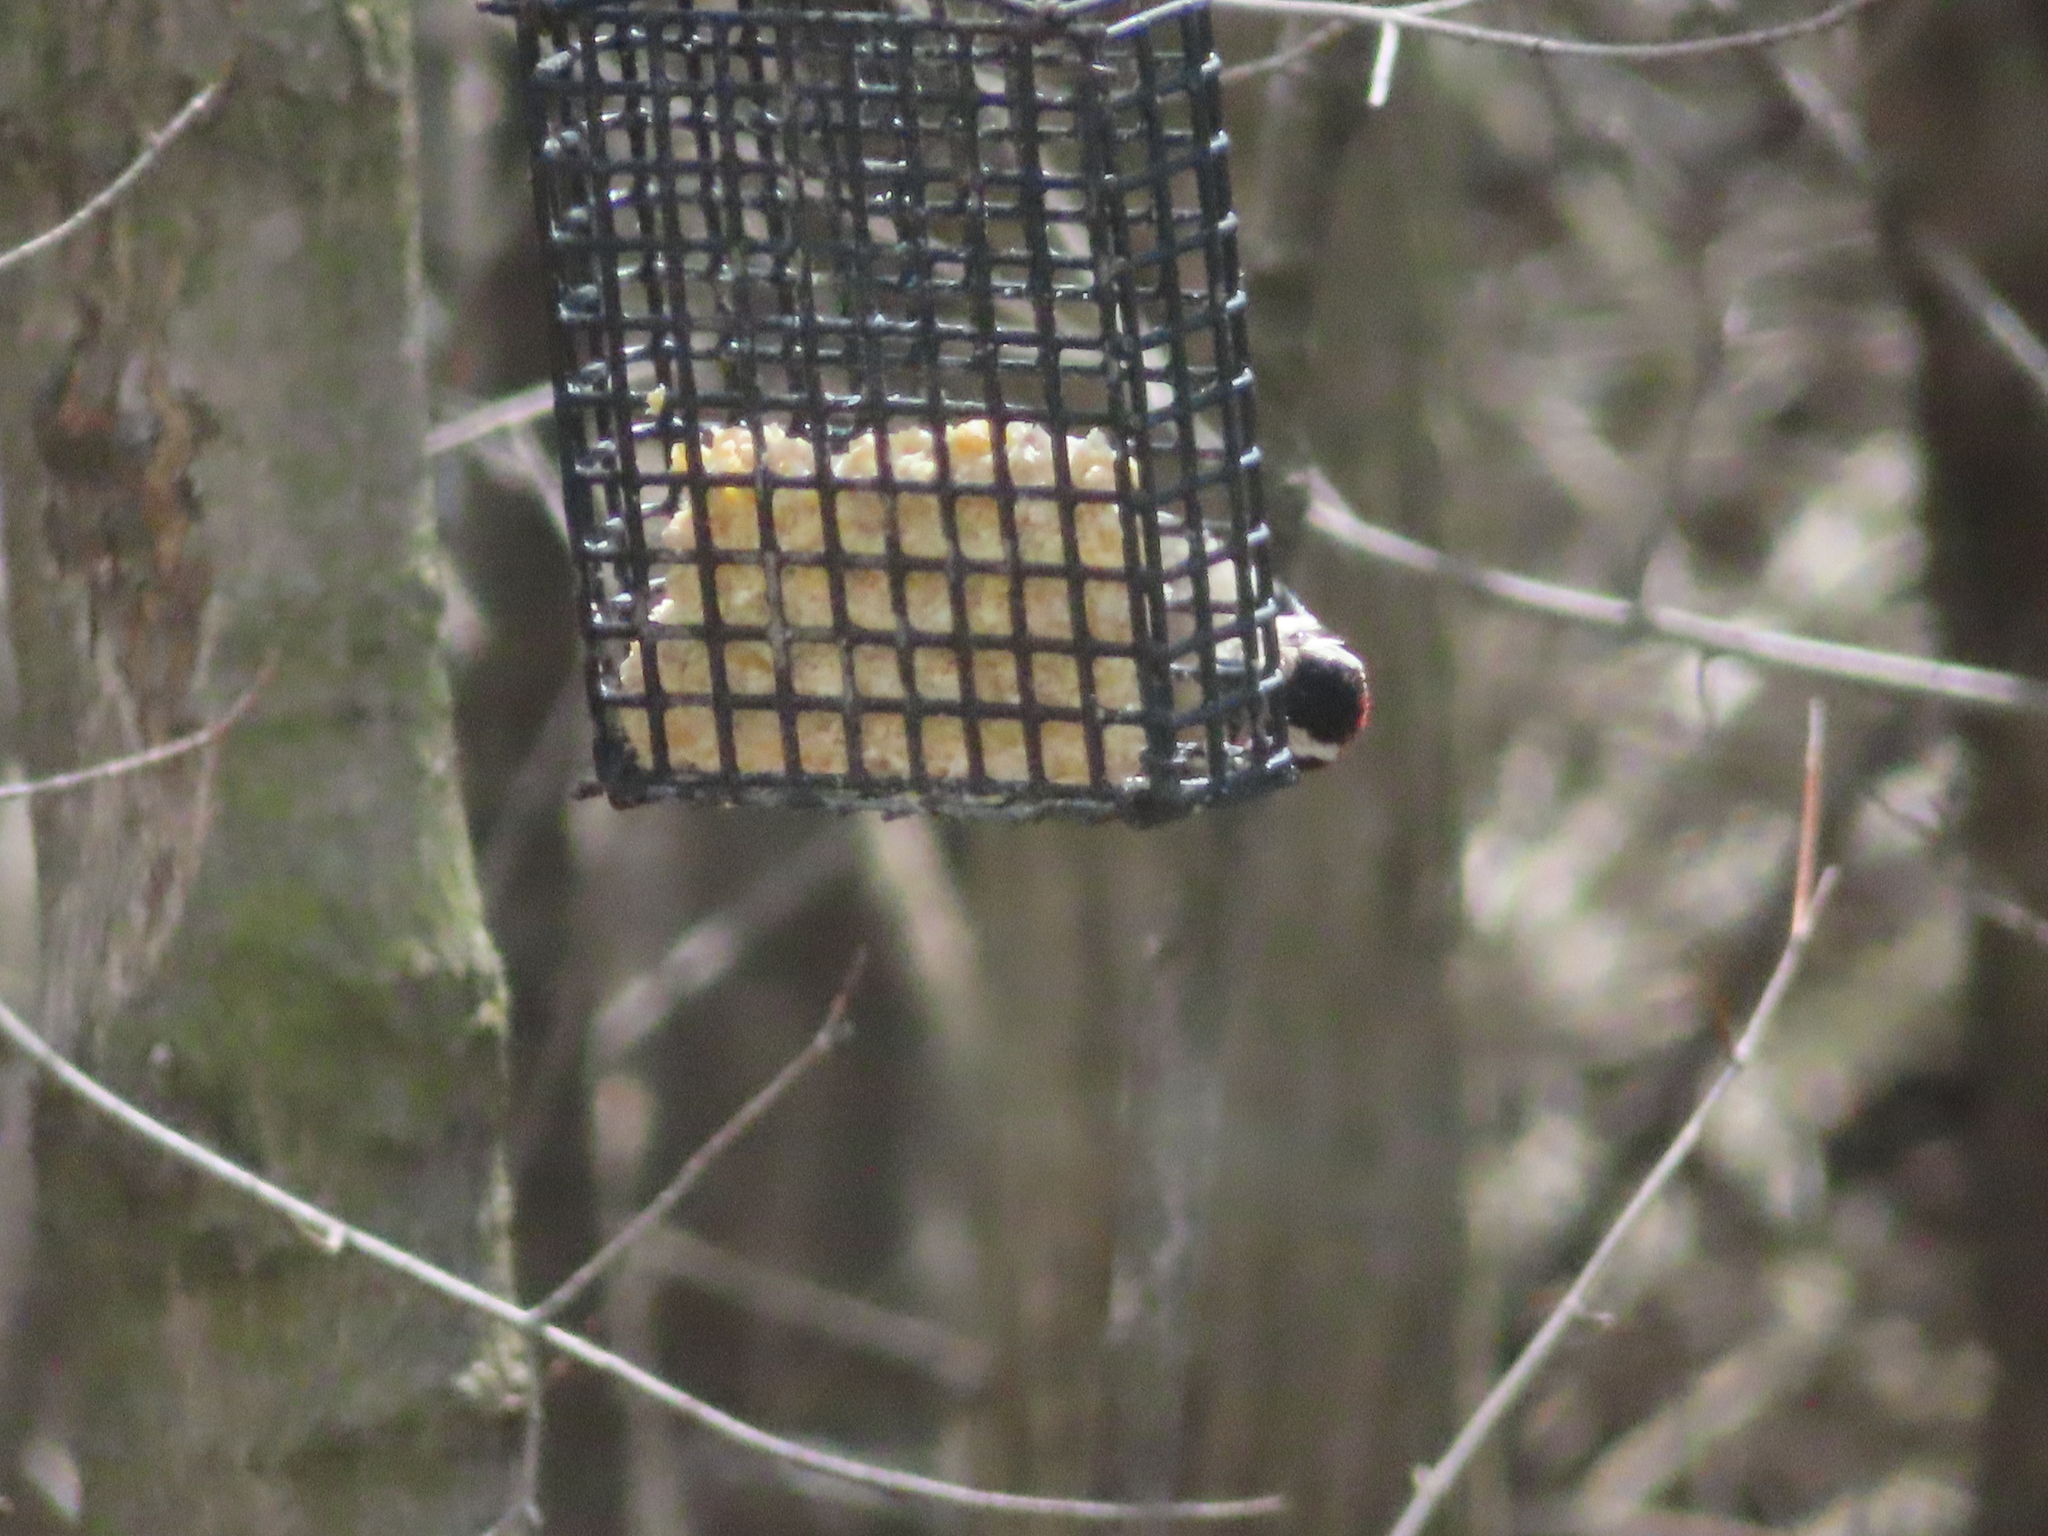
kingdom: Animalia
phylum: Chordata
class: Aves
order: Piciformes
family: Picidae
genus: Dryobates
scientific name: Dryobates pubescens
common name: Downy woodpecker
